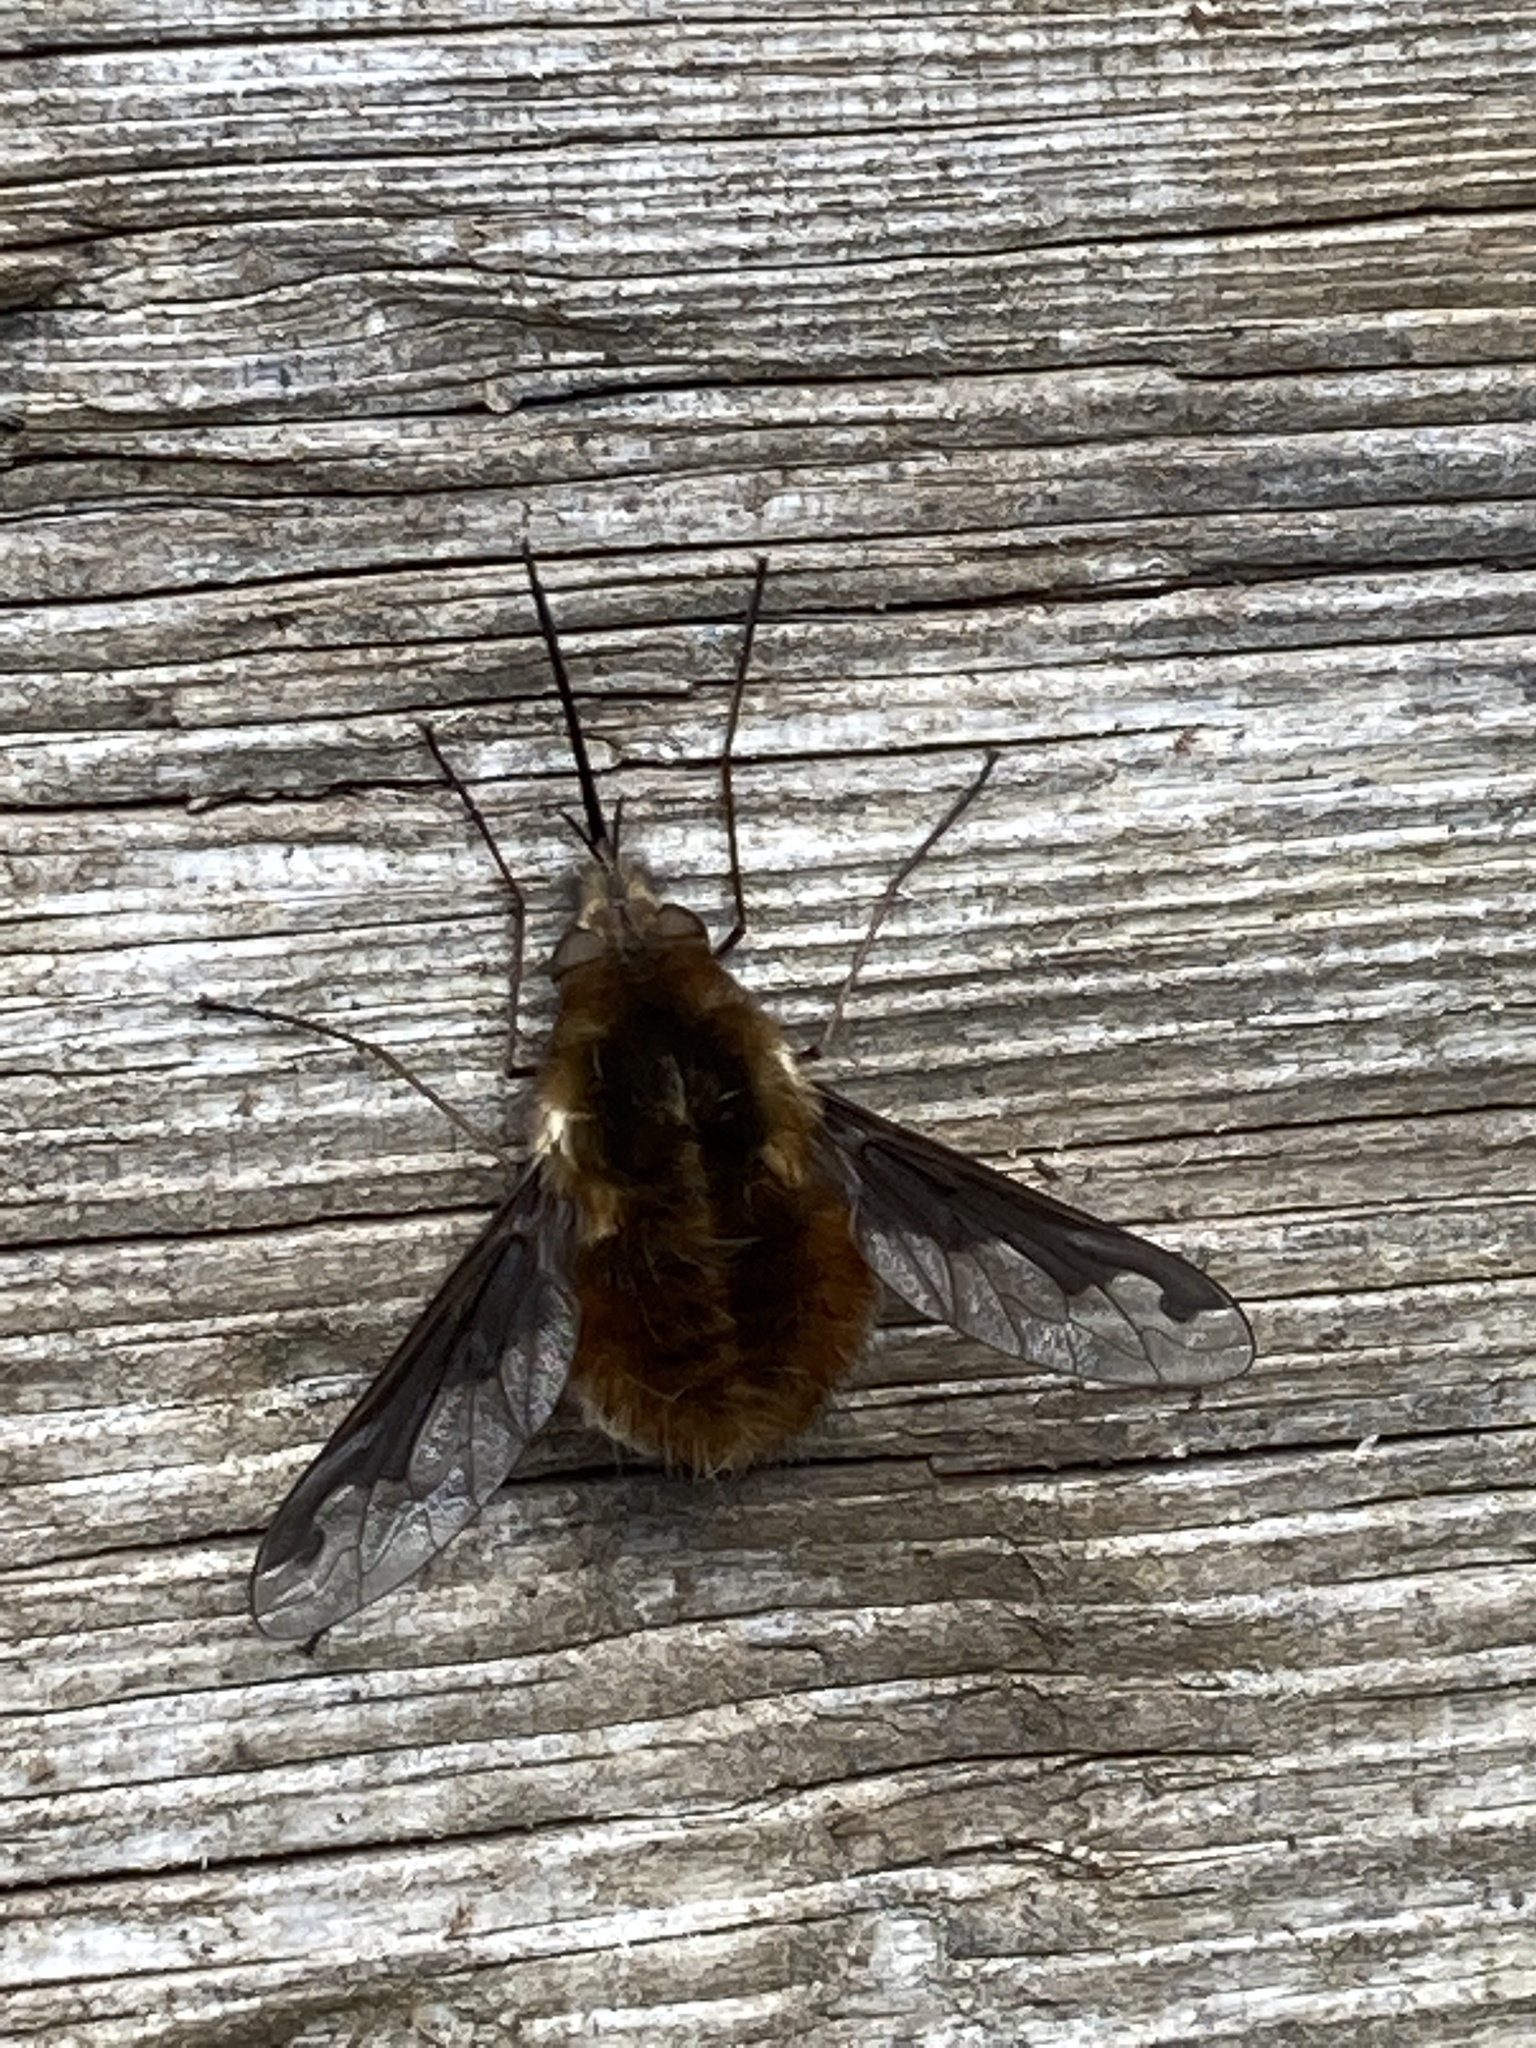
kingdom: Animalia
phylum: Arthropoda
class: Insecta
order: Diptera
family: Bombyliidae
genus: Bombylius
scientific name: Bombylius major
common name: Bee fly
